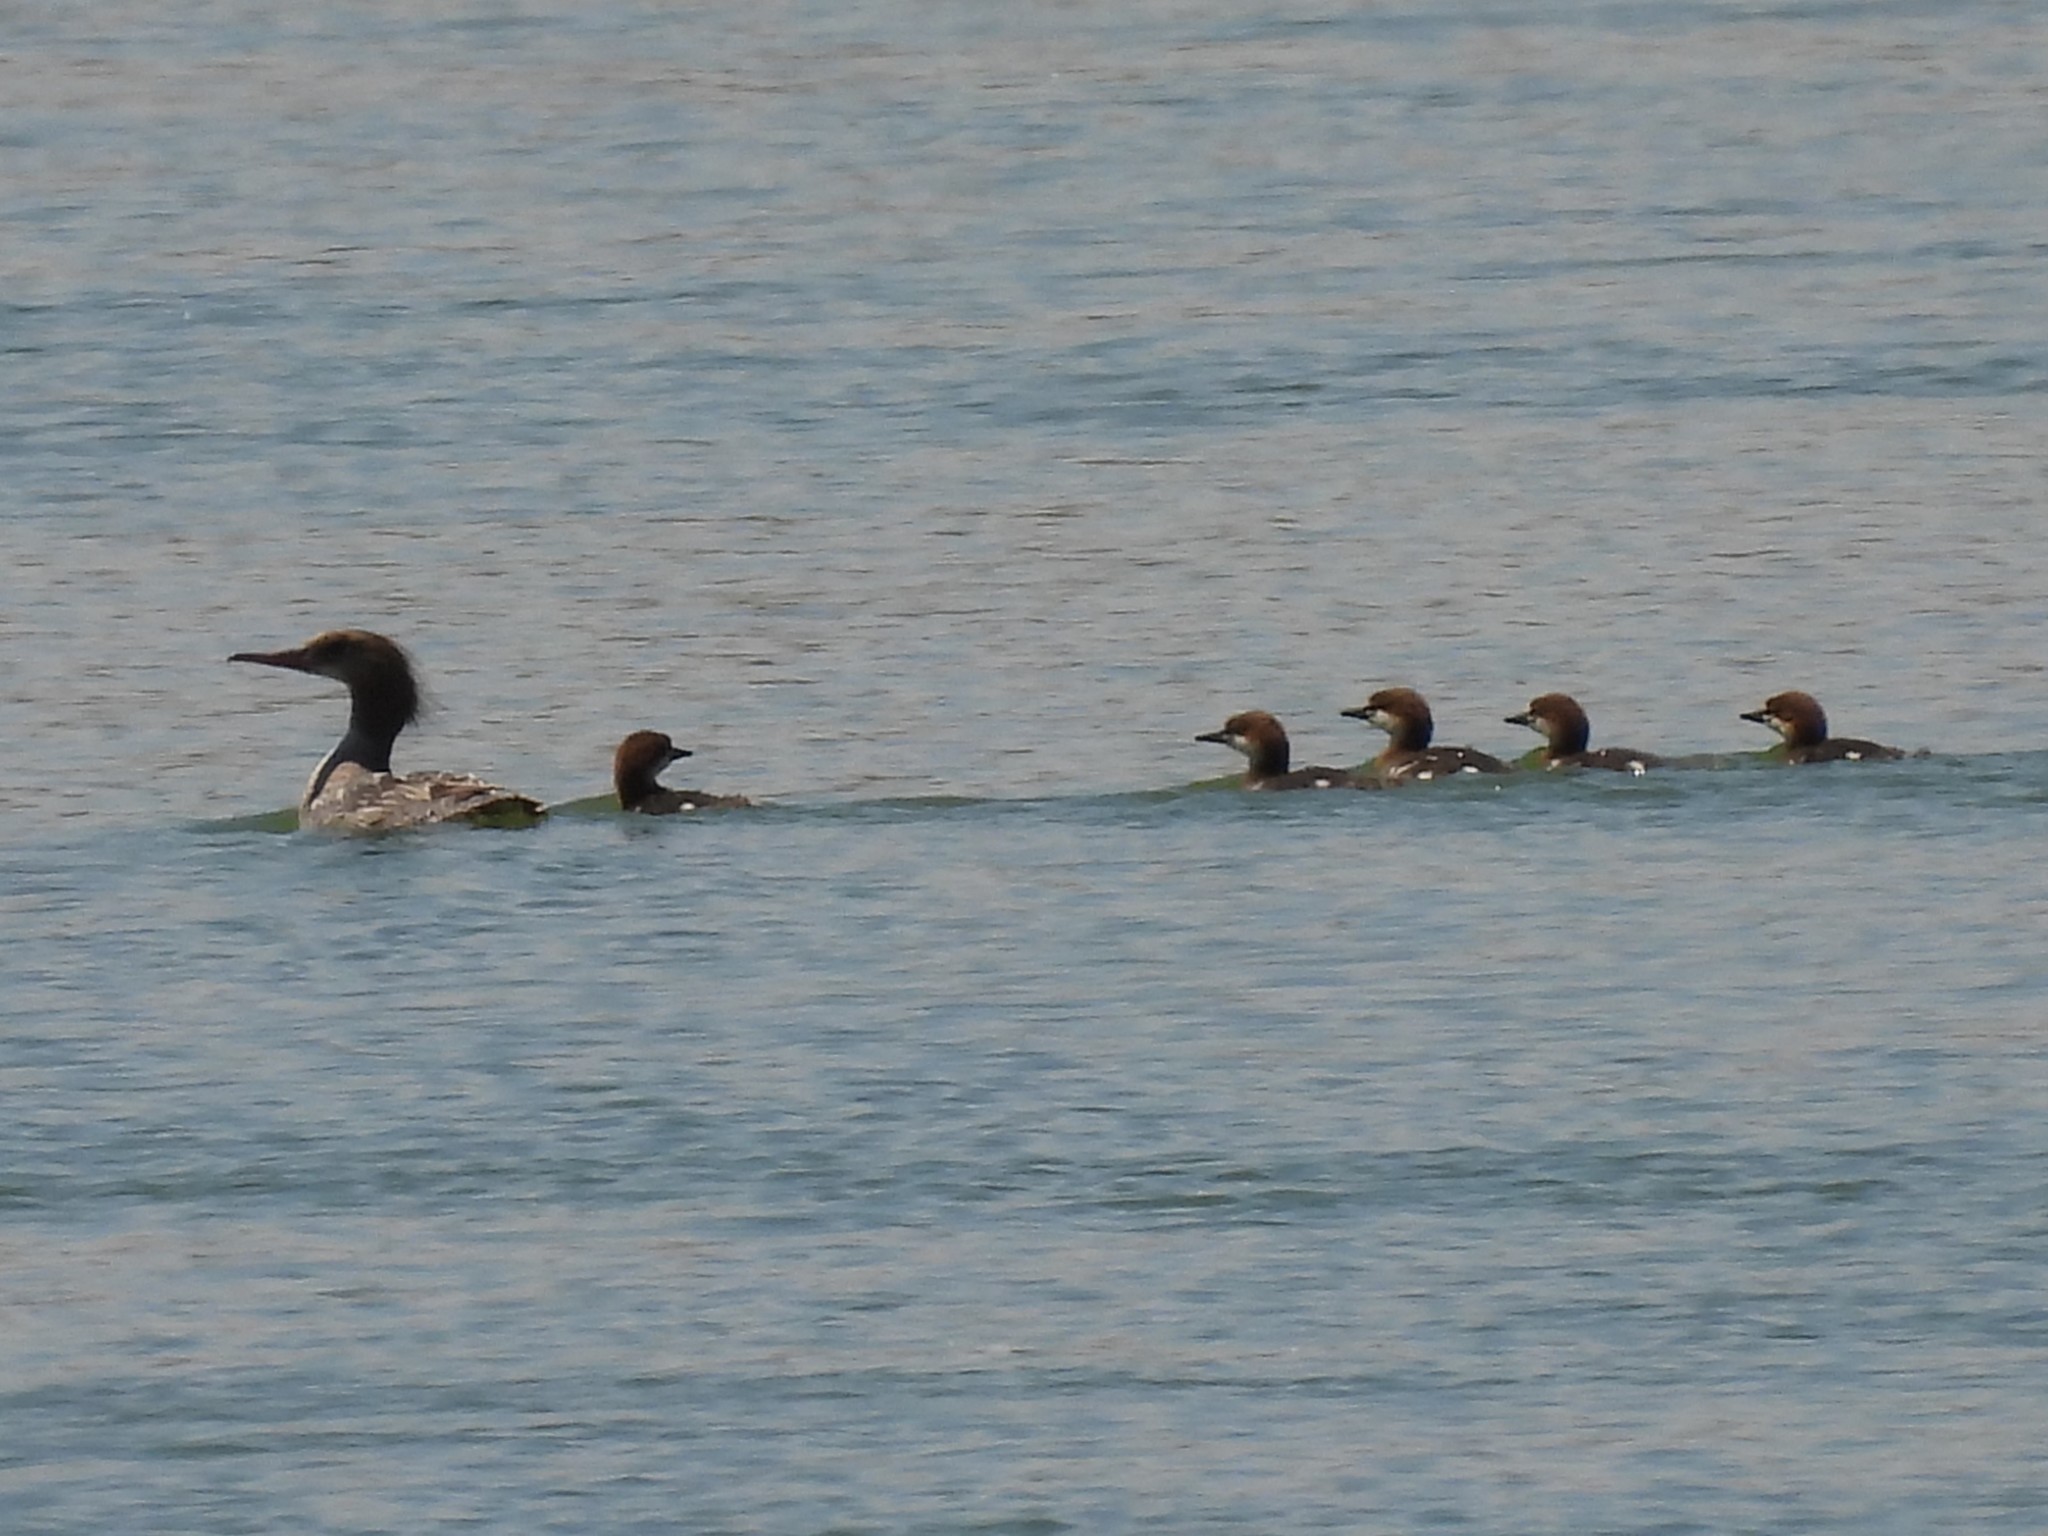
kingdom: Animalia
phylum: Chordata
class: Aves
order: Anseriformes
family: Anatidae
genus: Mergus
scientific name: Mergus merganser
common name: Common merganser
